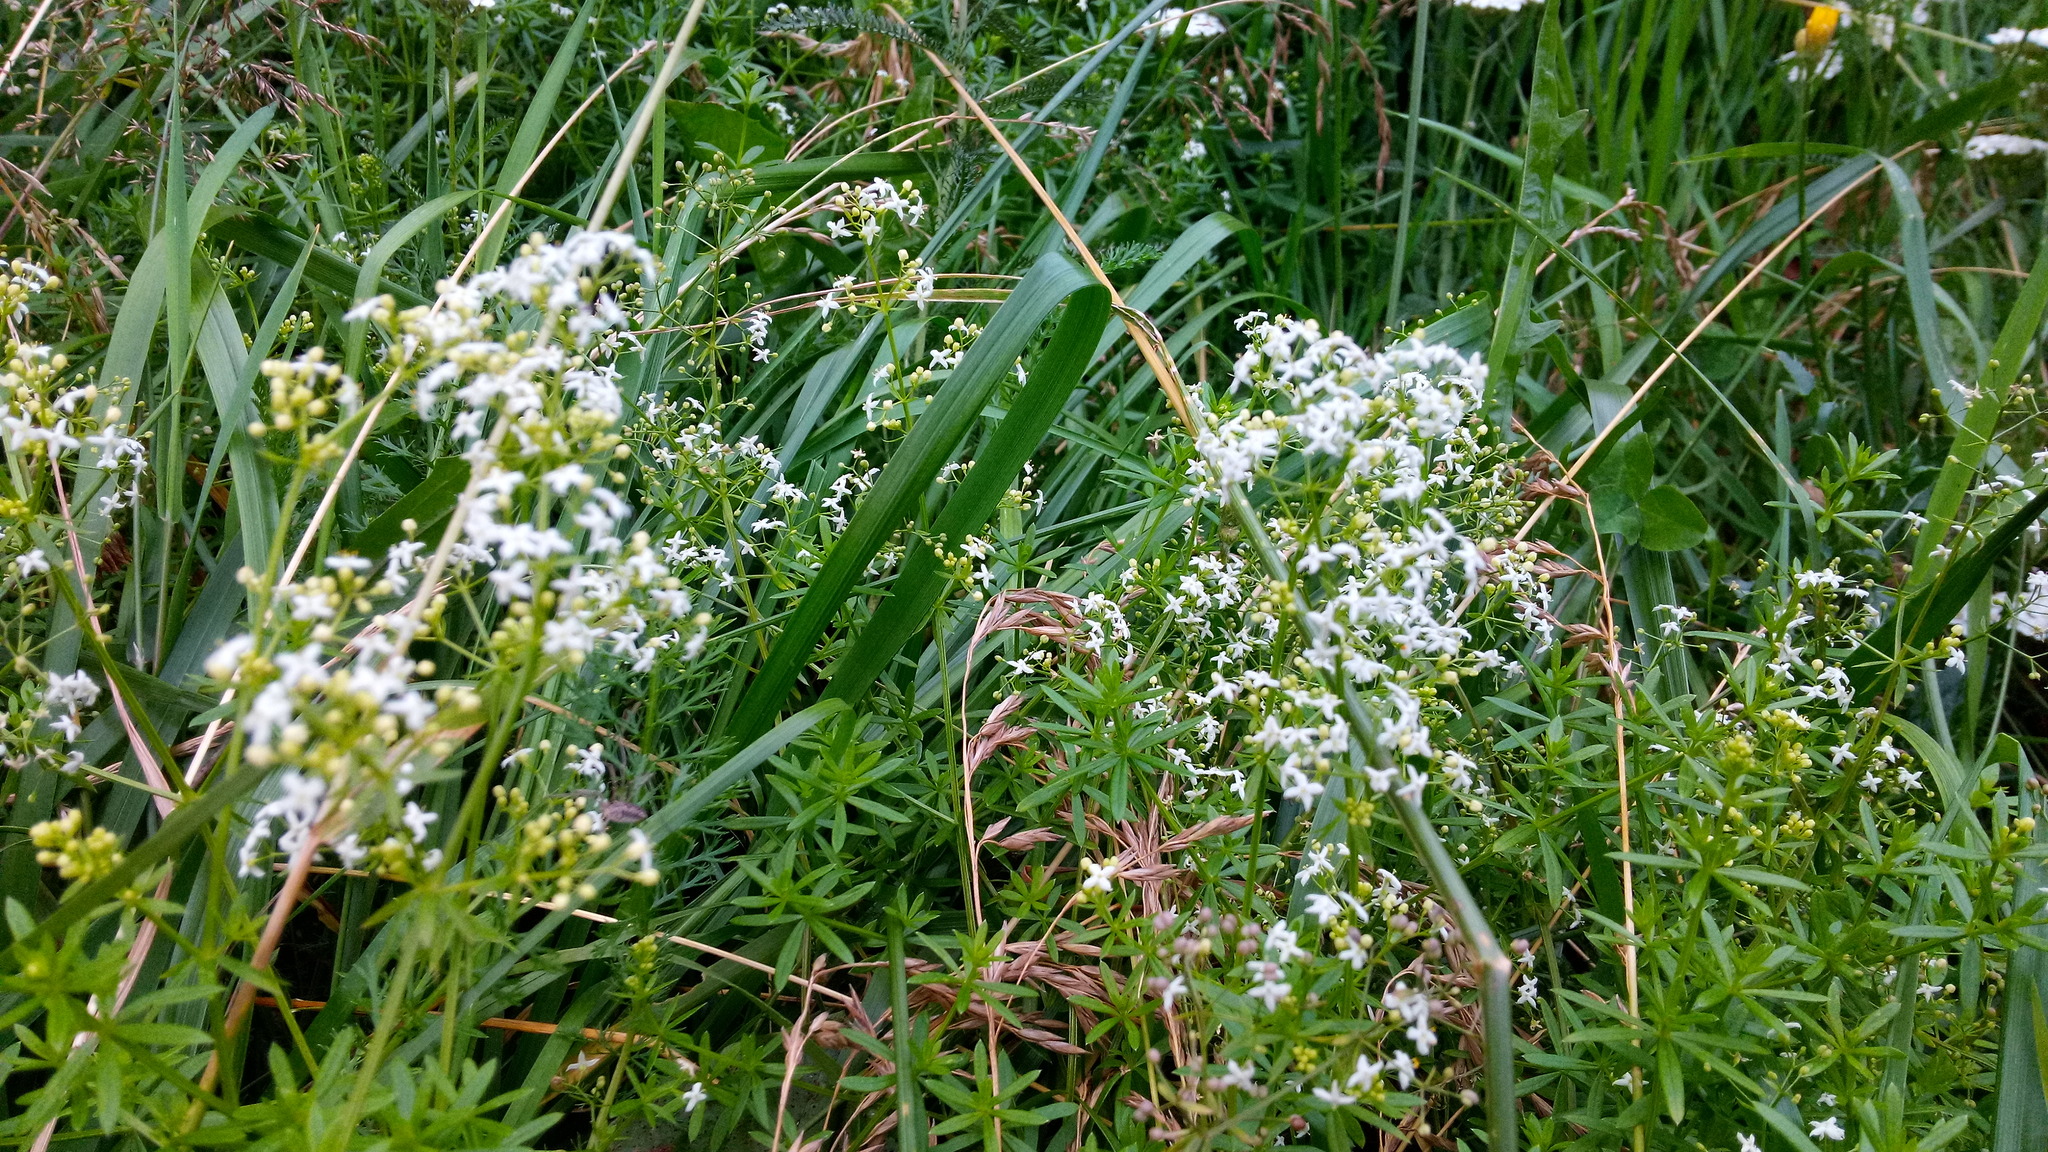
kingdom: Plantae
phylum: Tracheophyta
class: Magnoliopsida
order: Gentianales
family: Rubiaceae
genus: Galium
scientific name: Galium mollugo
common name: Hedge bedstraw
